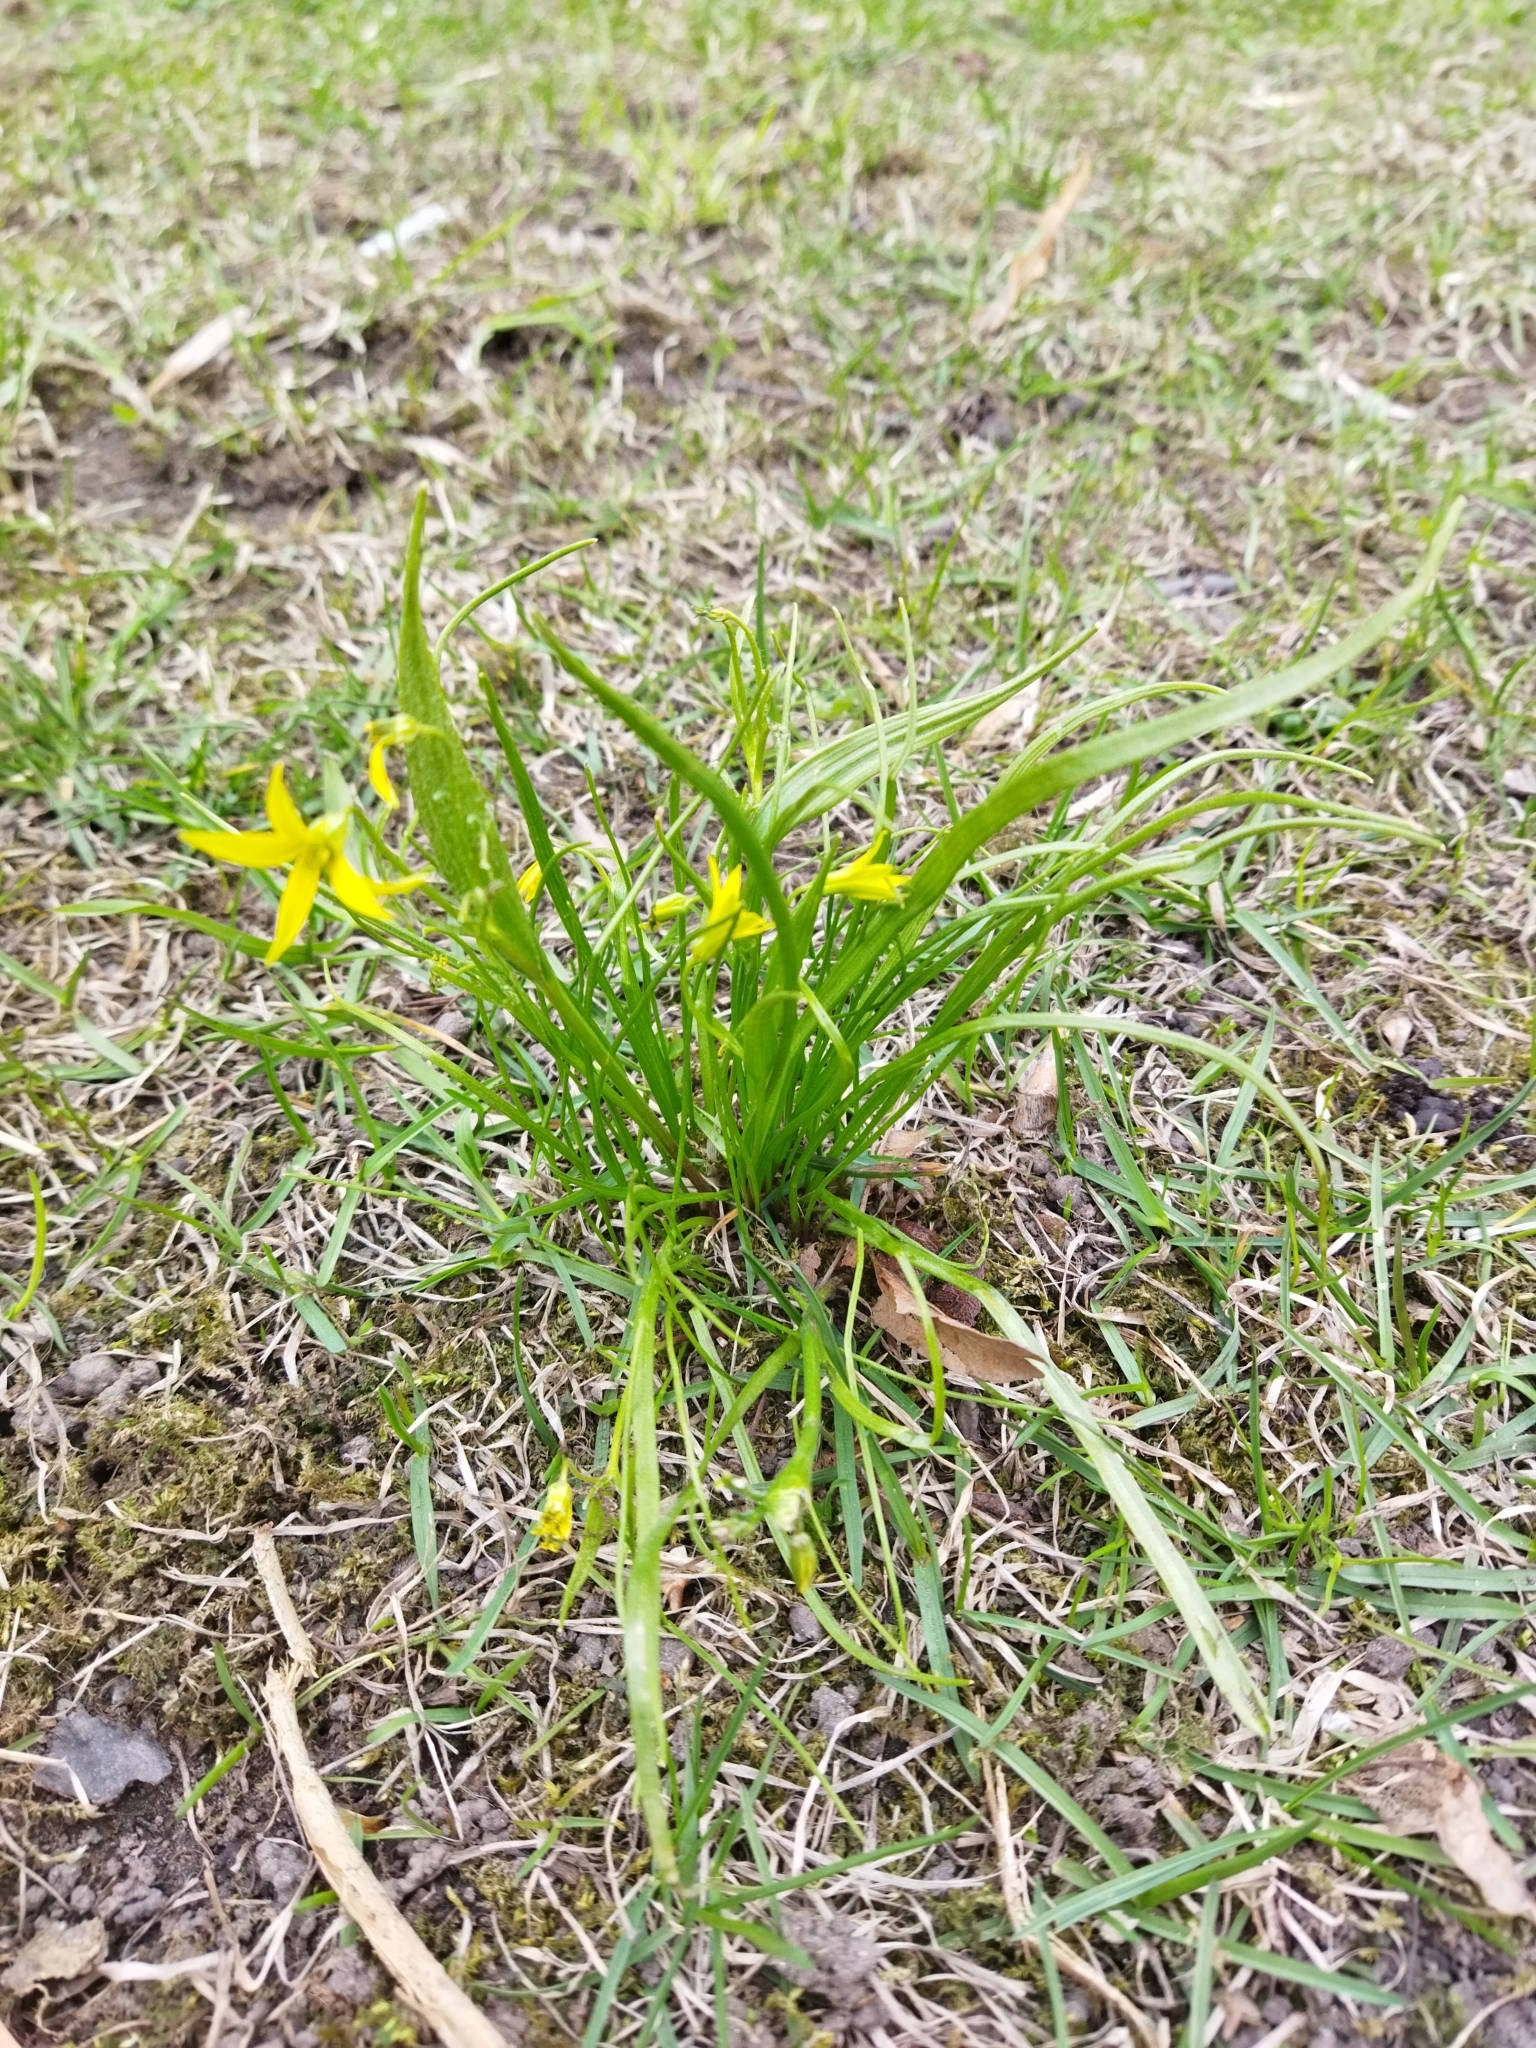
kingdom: Plantae
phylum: Tracheophyta
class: Liliopsida
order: Liliales
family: Liliaceae
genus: Gagea
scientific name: Gagea minima
